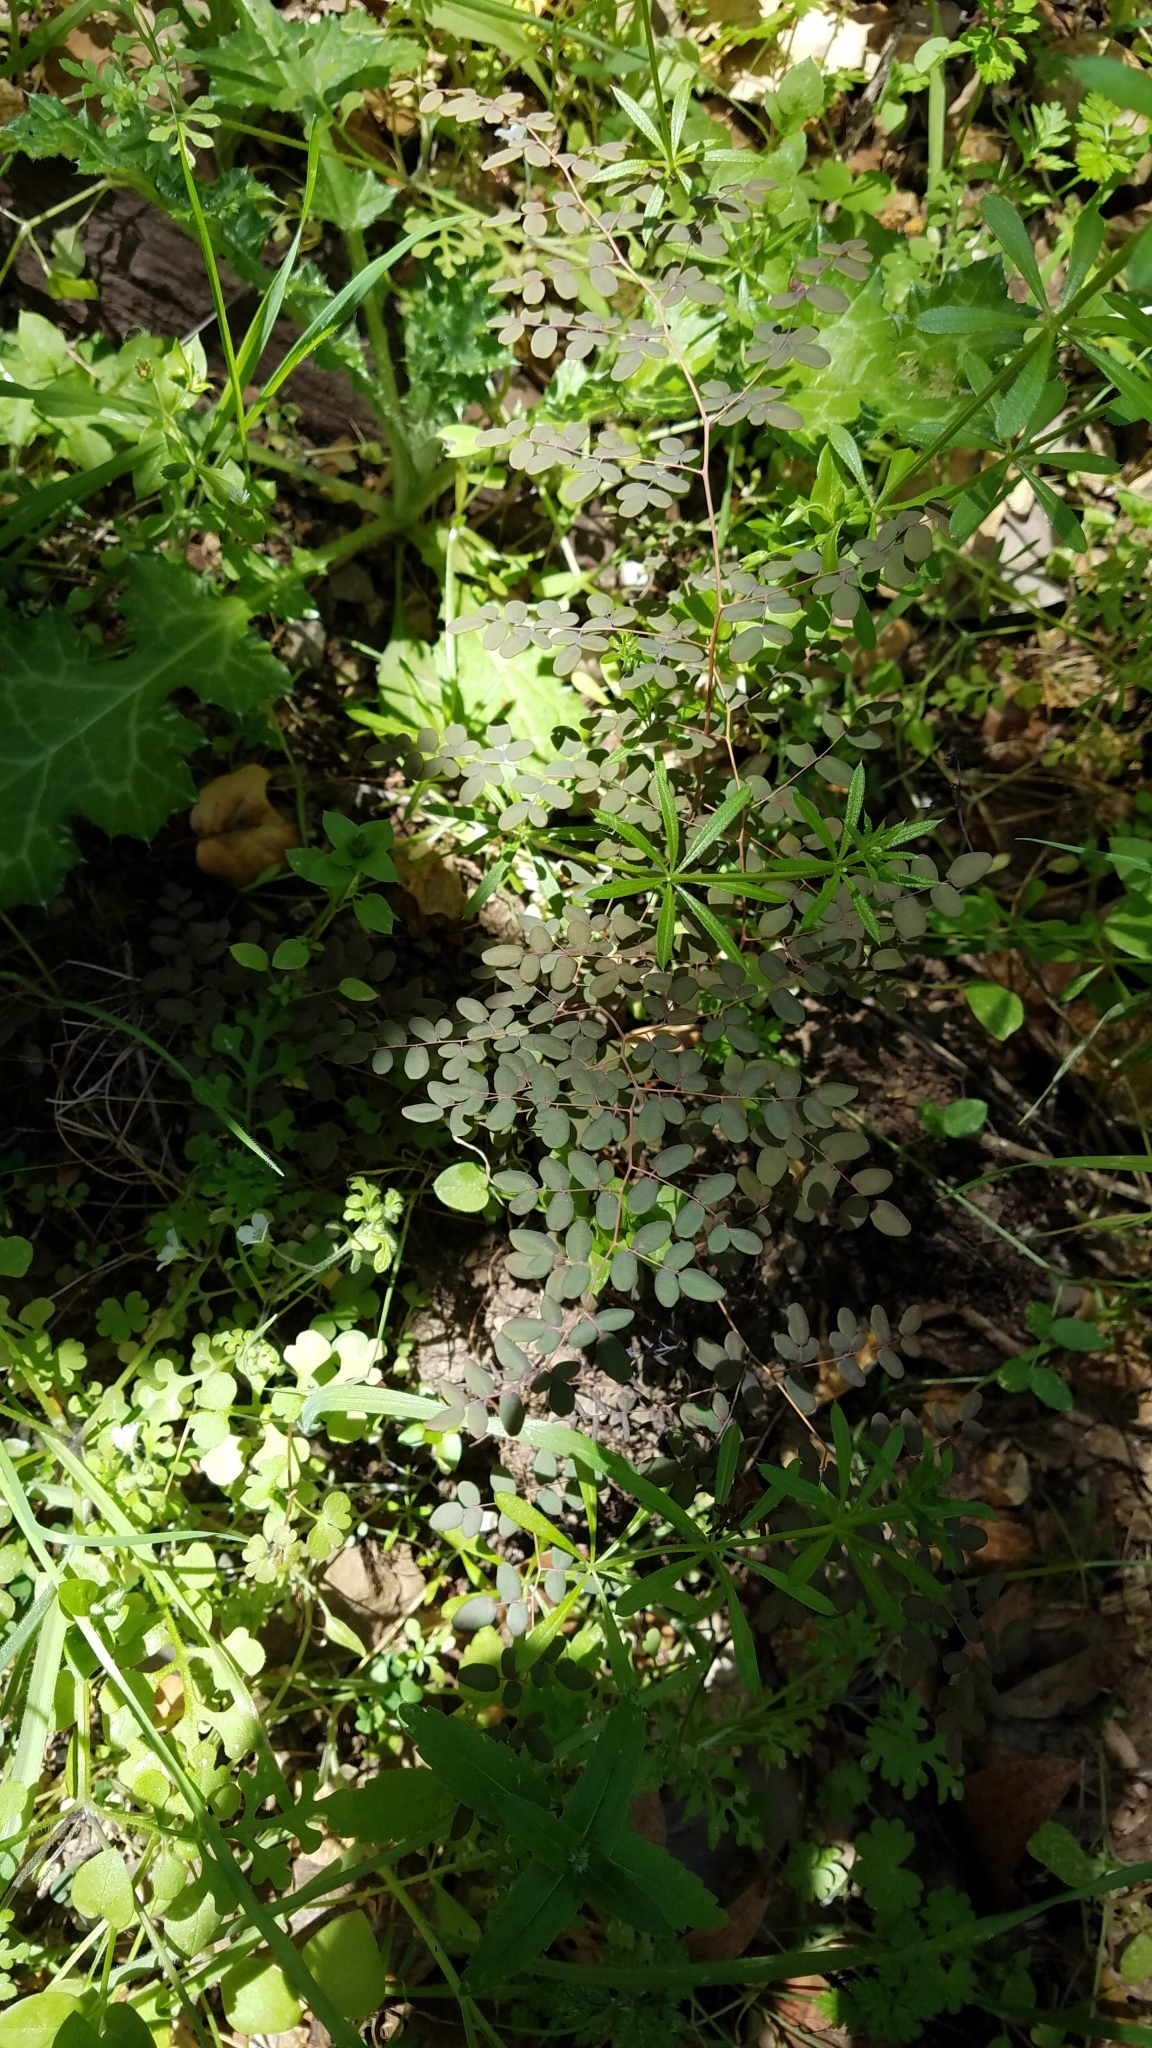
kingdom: Plantae
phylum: Tracheophyta
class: Polypodiopsida
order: Polypodiales
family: Pteridaceae
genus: Pellaea
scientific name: Pellaea andromedifolia
